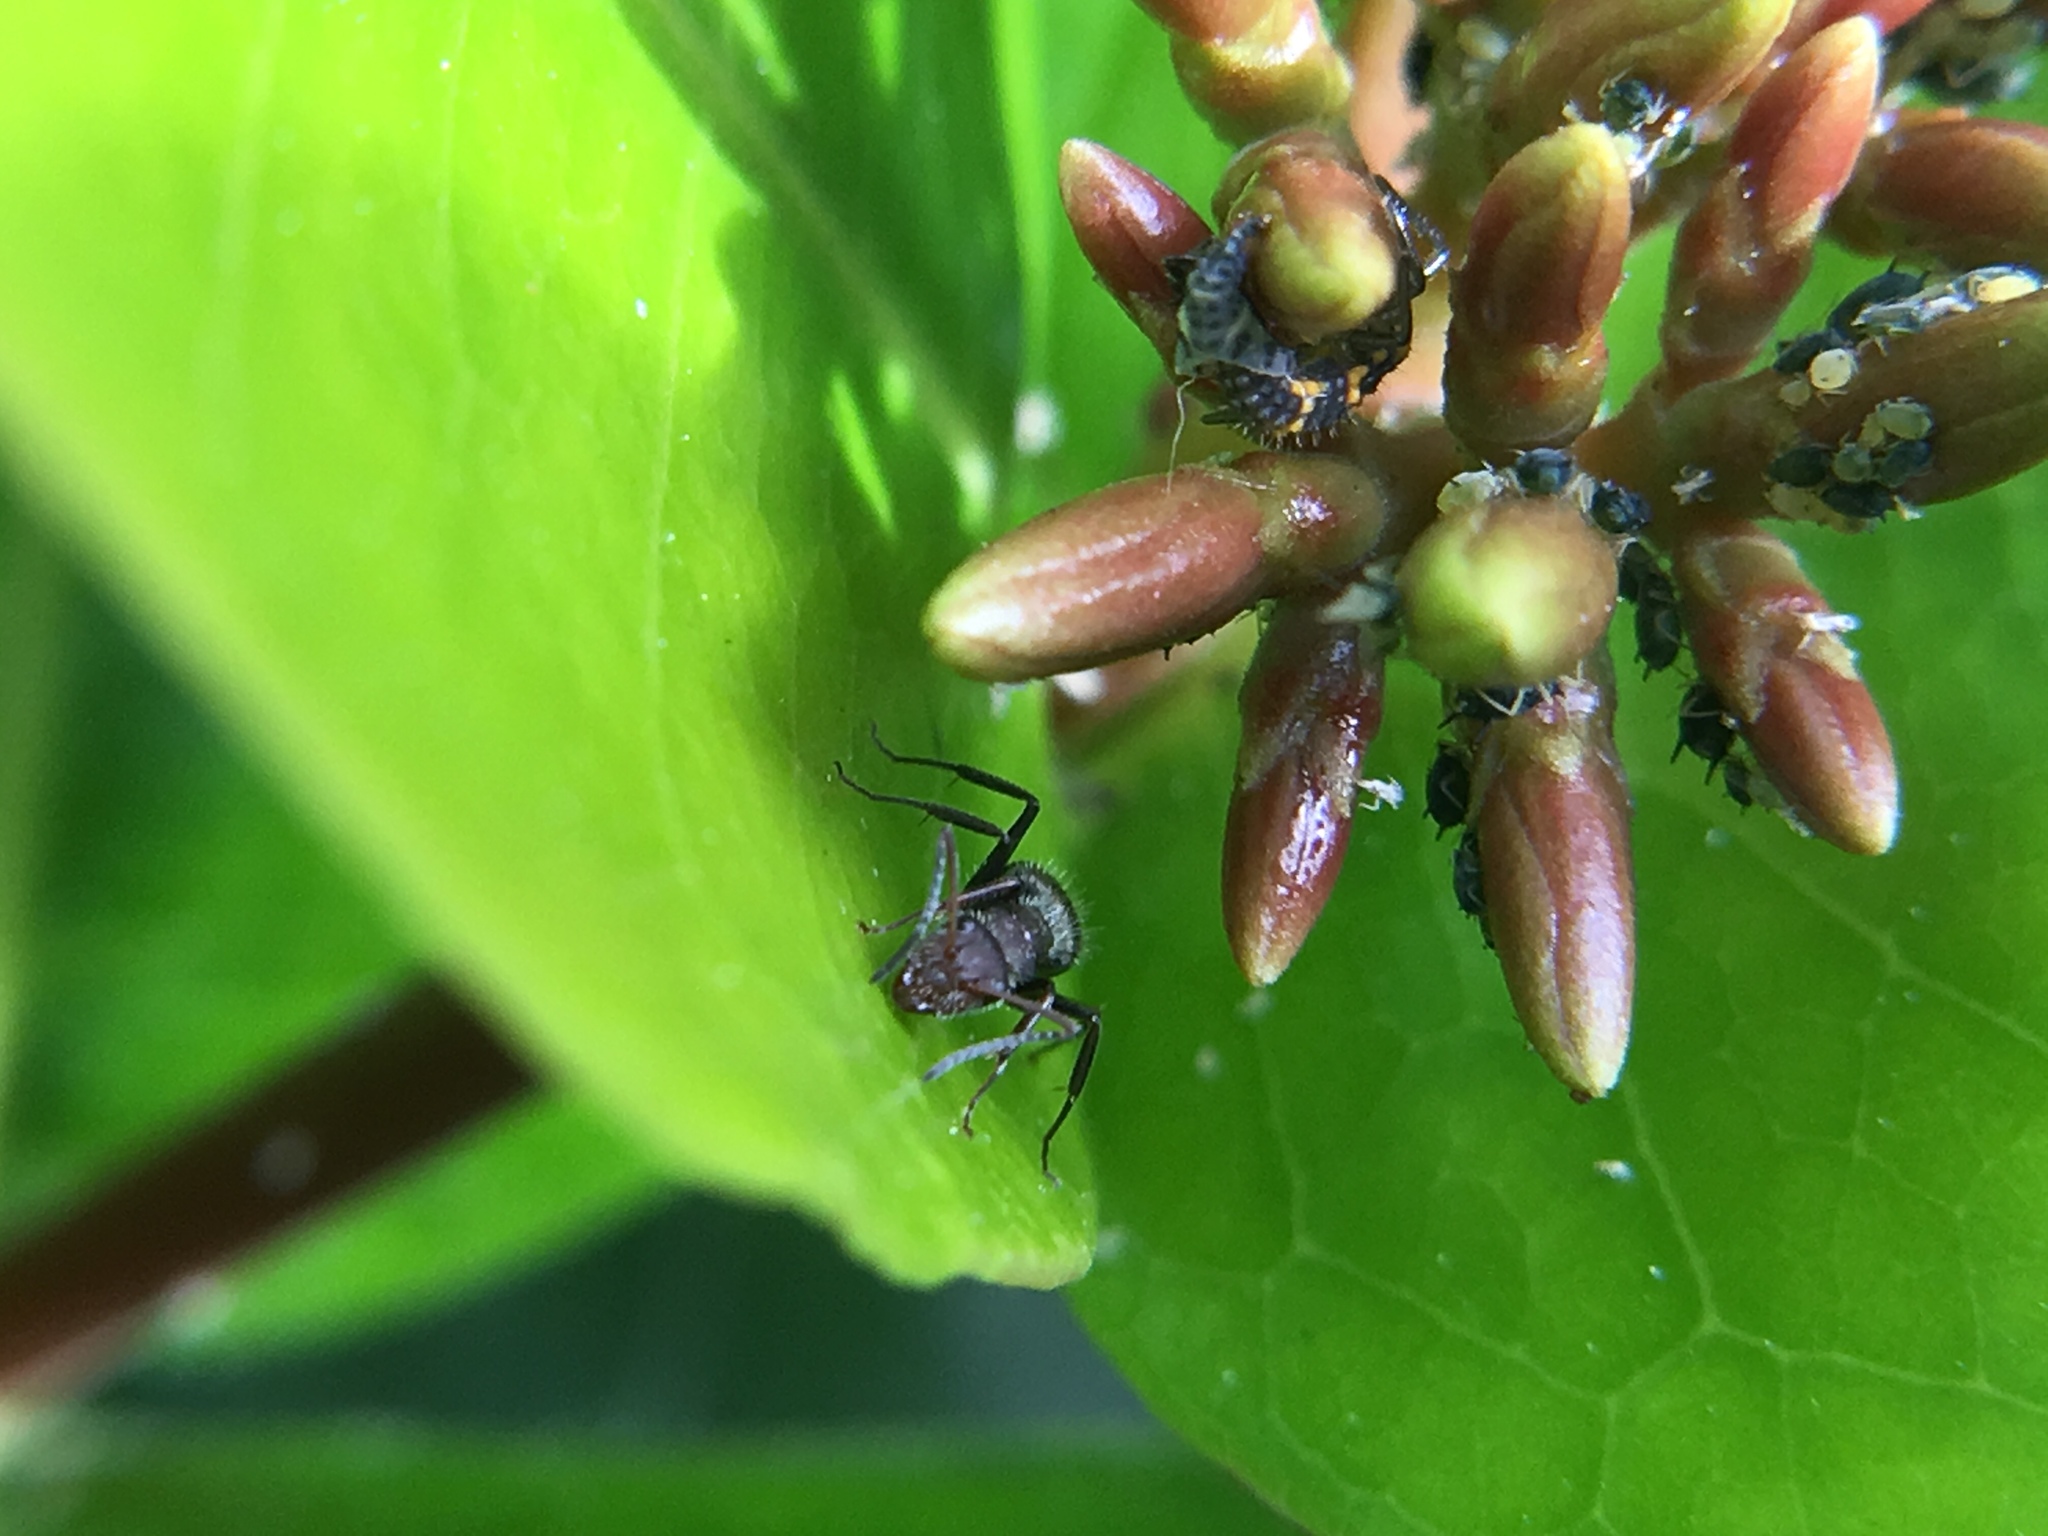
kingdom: Animalia
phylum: Arthropoda
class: Insecta
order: Hymenoptera
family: Formicidae
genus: Camponotus
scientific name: Camponotus planatus
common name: Compact carpenter ant
